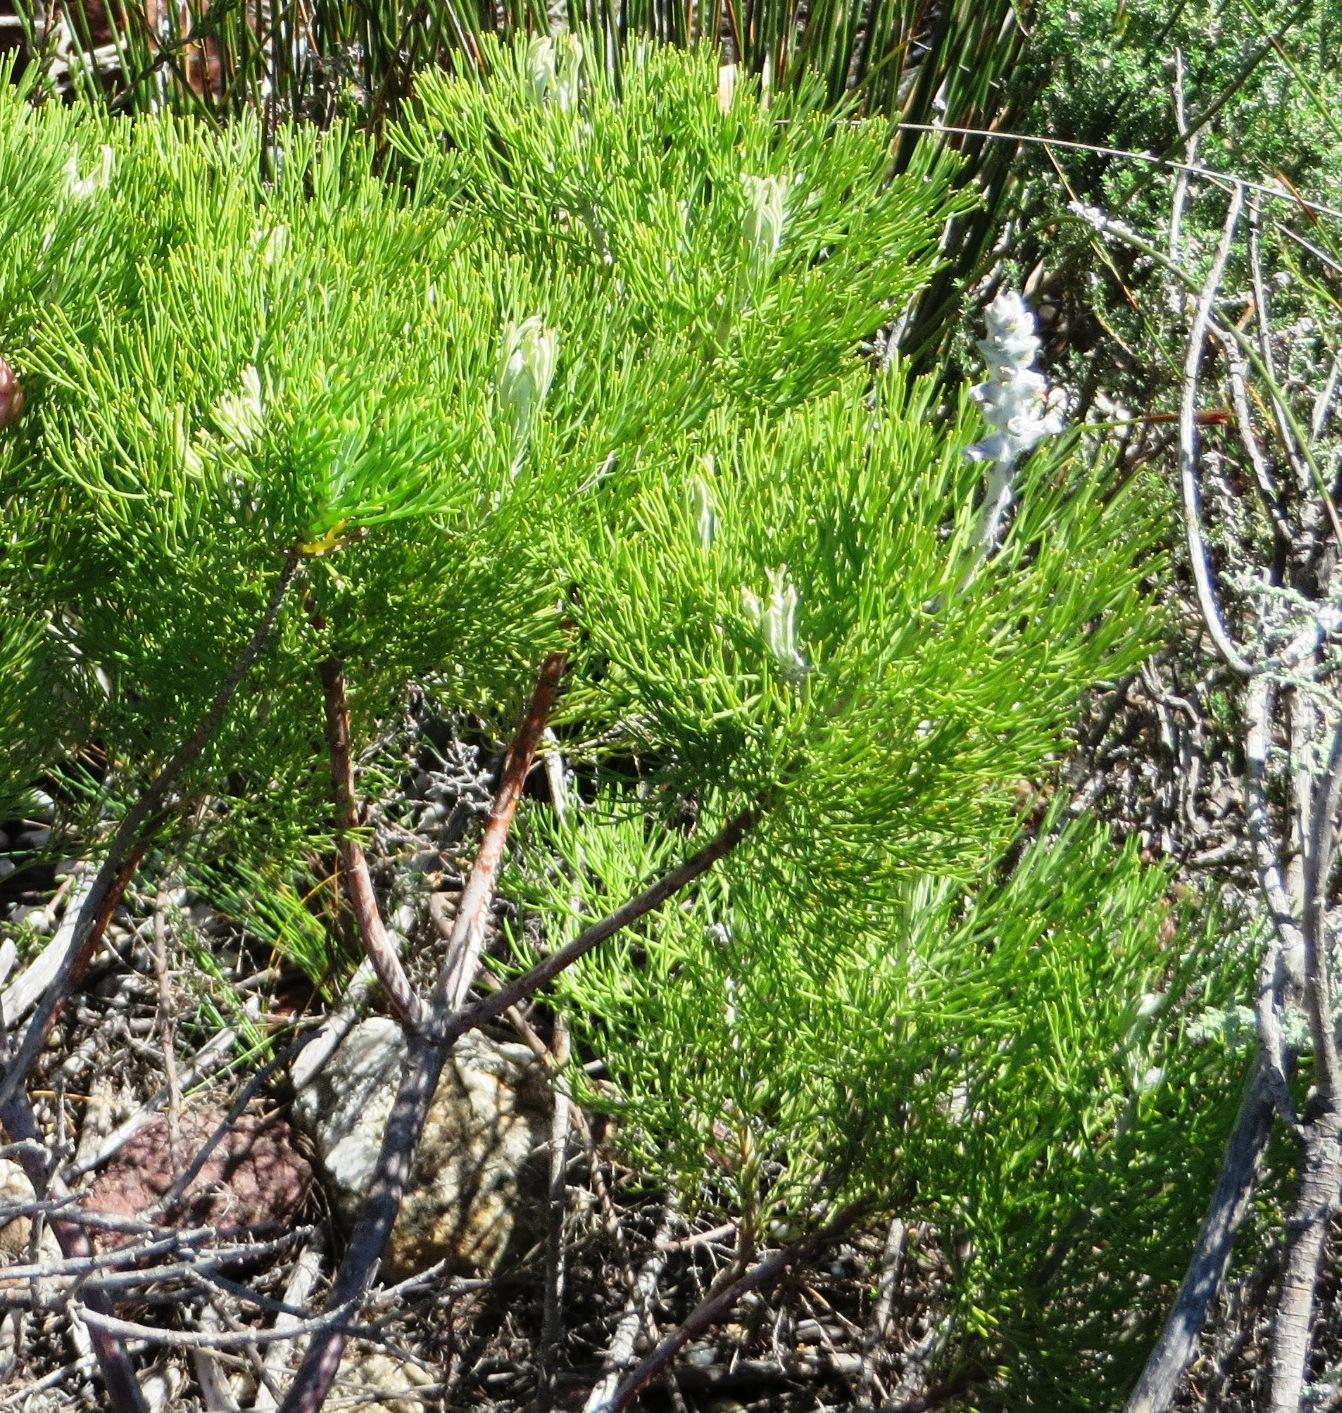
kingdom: Plantae
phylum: Tracheophyta
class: Magnoliopsida
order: Proteales
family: Proteaceae
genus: Paranomus
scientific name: Paranomus spicatus
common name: Kogelberg sceptre
